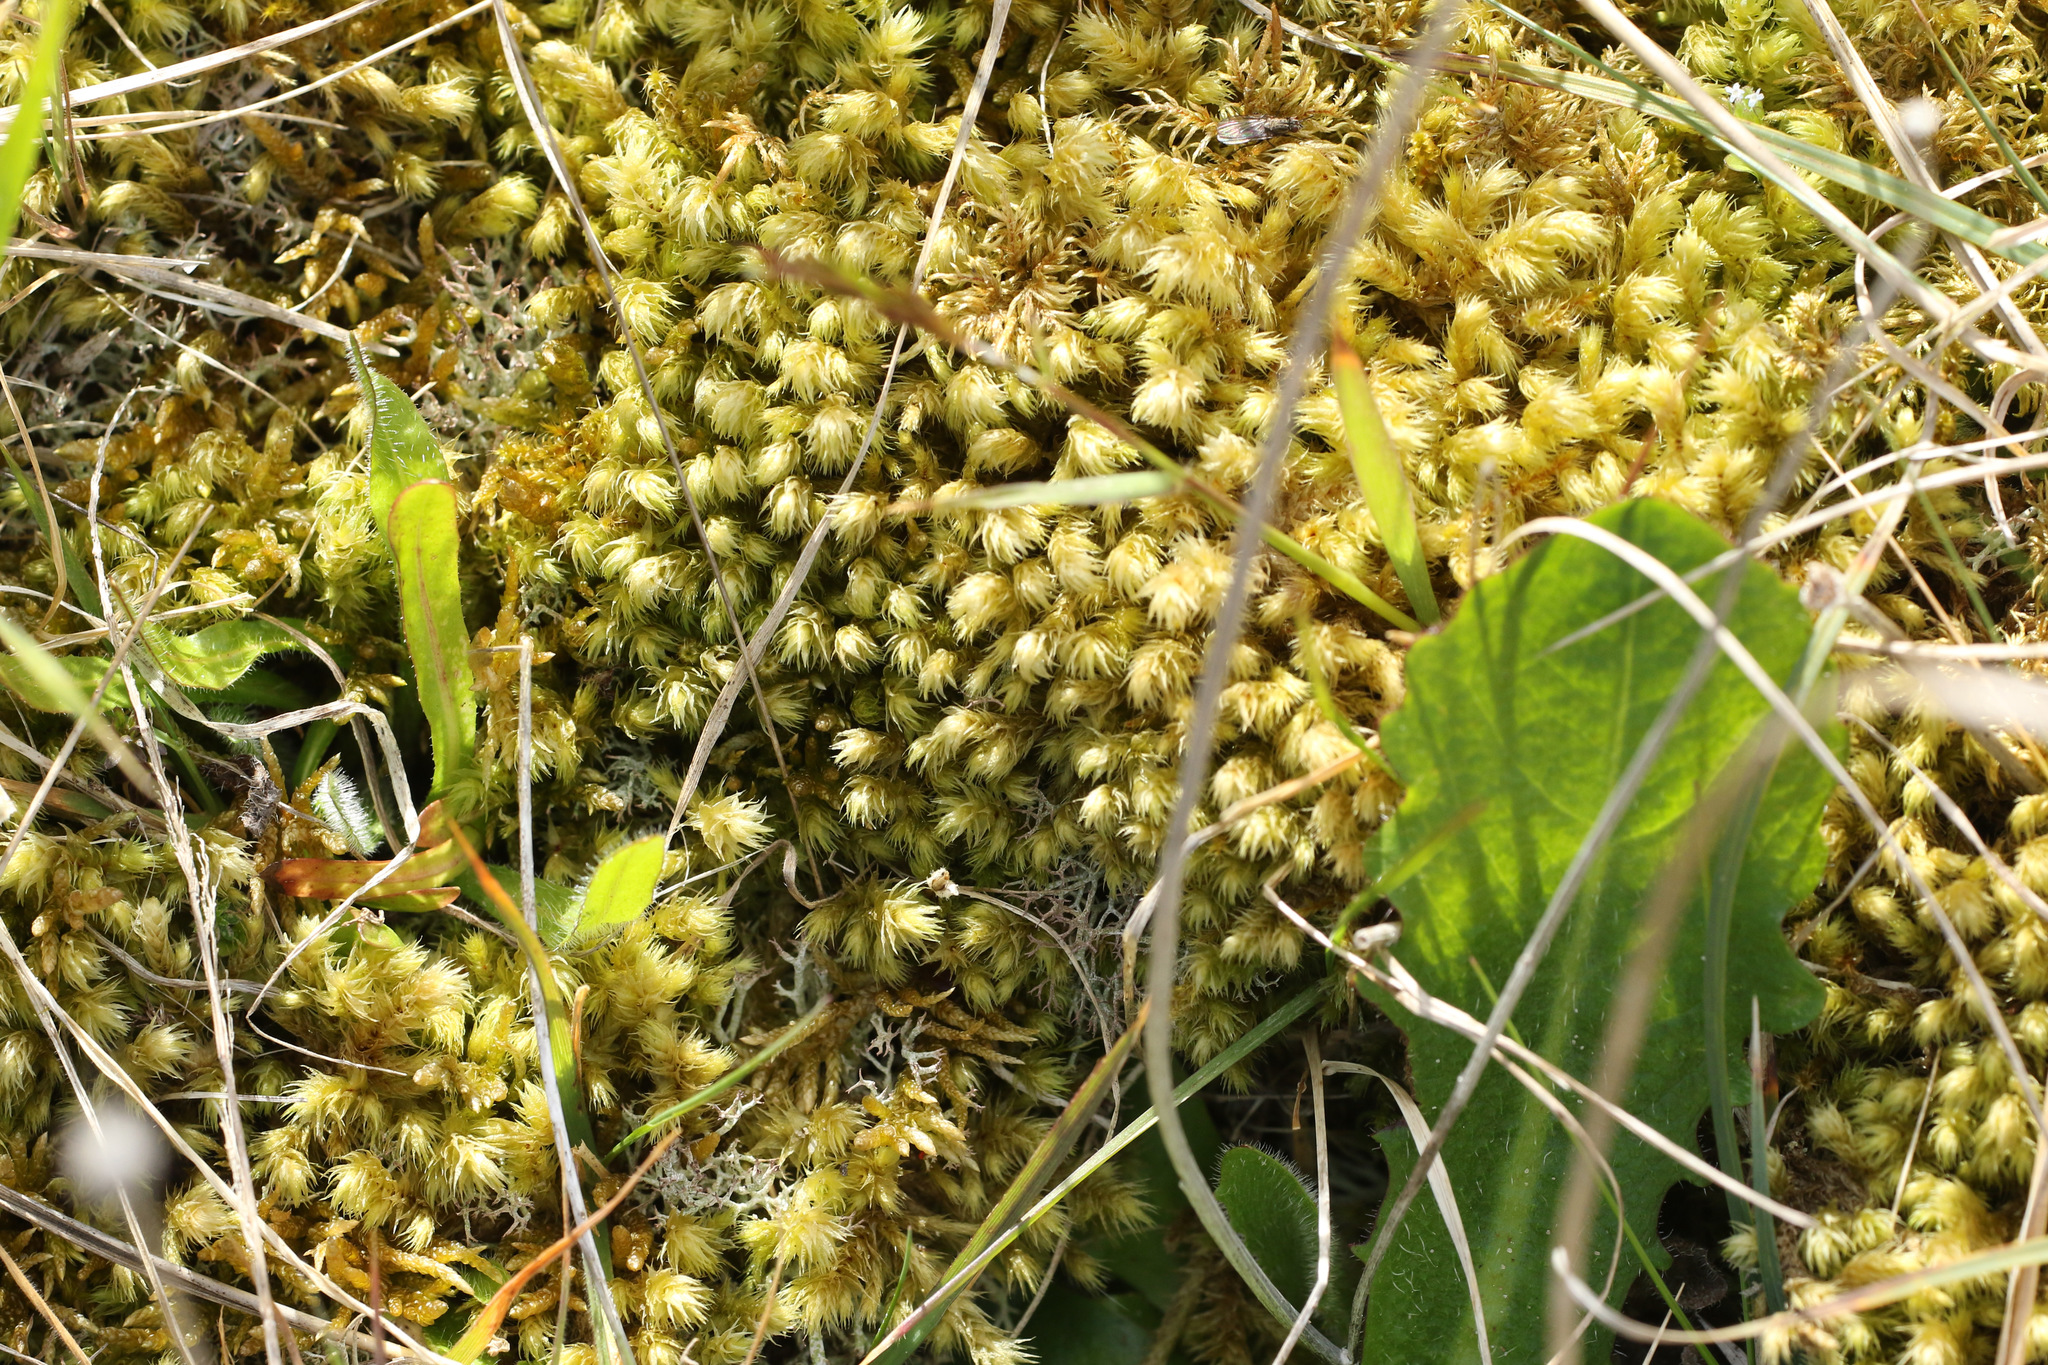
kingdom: Plantae
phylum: Bryophyta
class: Bryopsida
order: Hypnales
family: Hylocomiaceae
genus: Hylocomiadelphus
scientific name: Hylocomiadelphus triquetrus
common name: Rough goose neck moss
